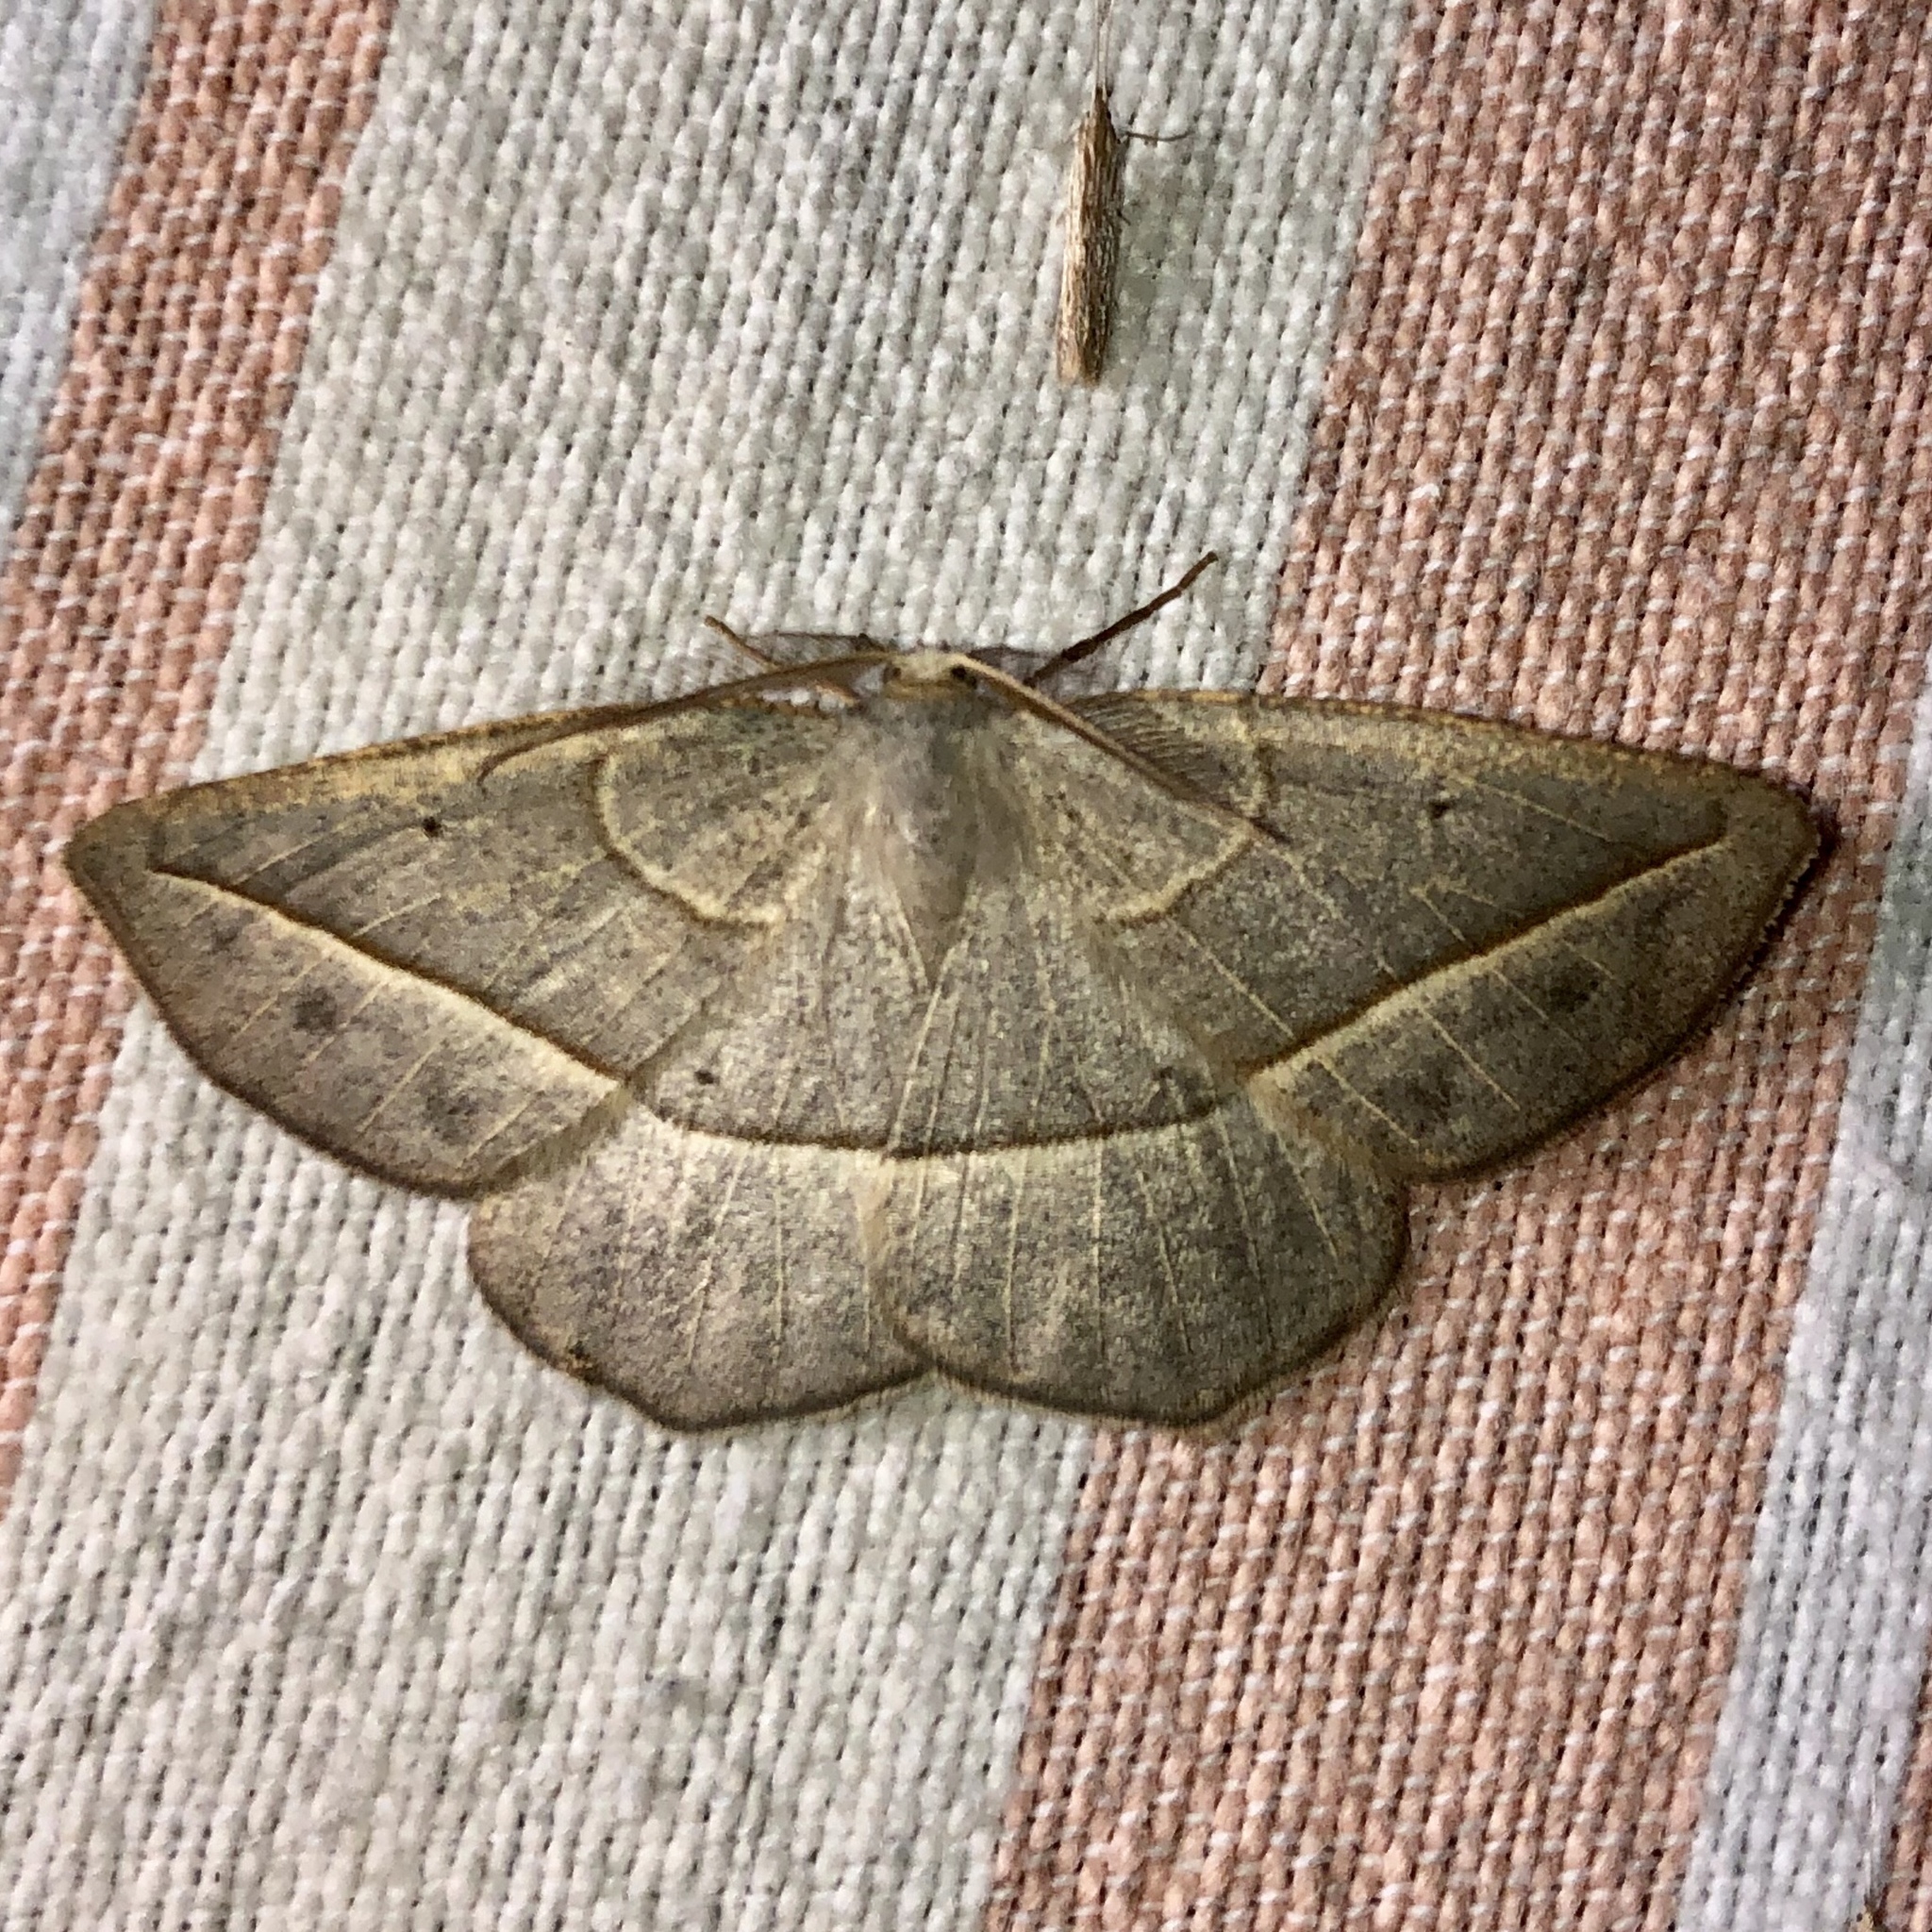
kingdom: Animalia
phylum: Arthropoda
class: Insecta
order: Lepidoptera
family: Geometridae
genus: Eusarca
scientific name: Eusarca confusaria
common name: Confused eusarca
